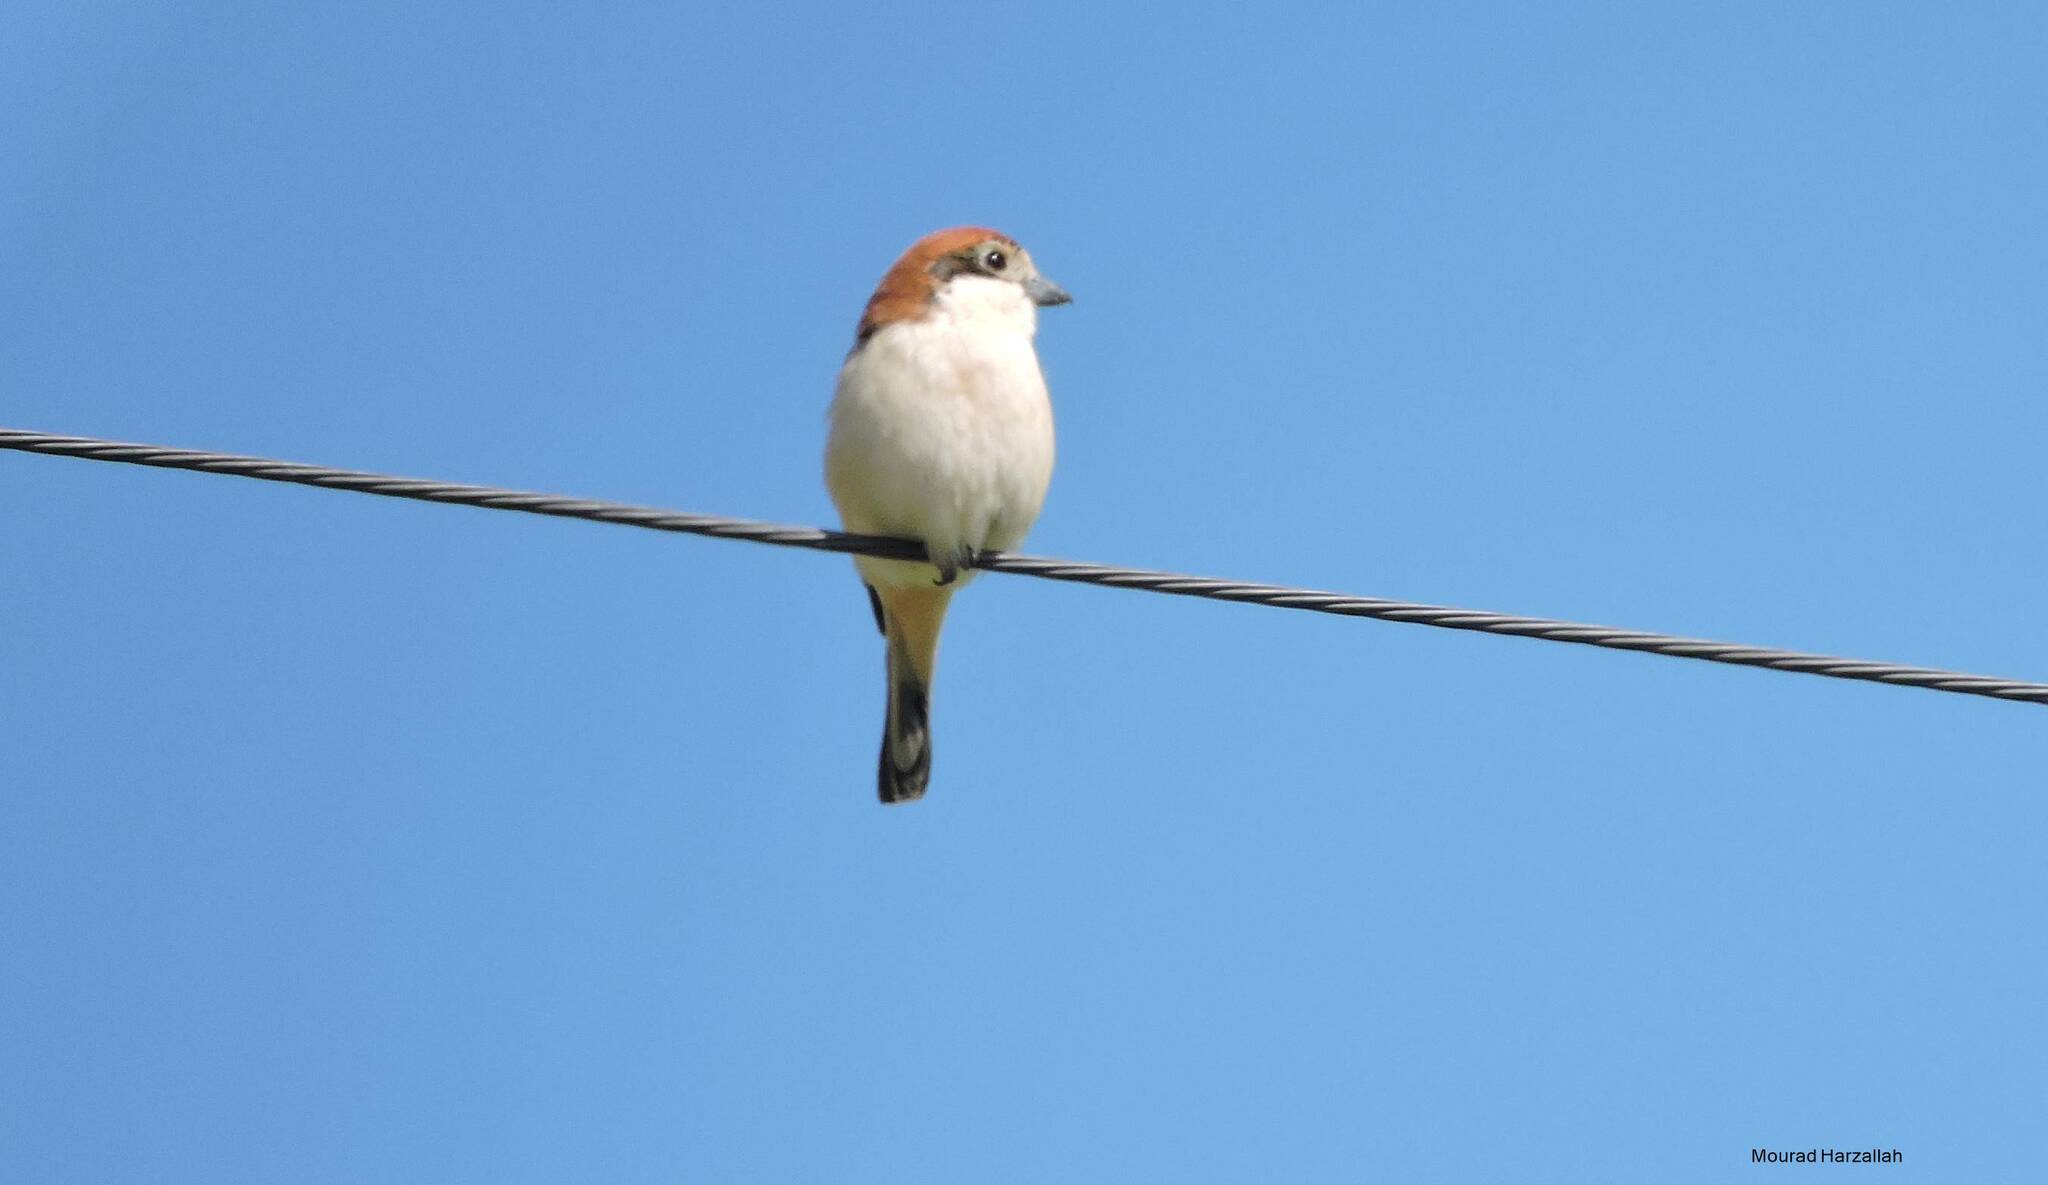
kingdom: Animalia
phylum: Chordata
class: Aves
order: Passeriformes
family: Laniidae
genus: Lanius
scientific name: Lanius senator
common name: Woodchat shrike
